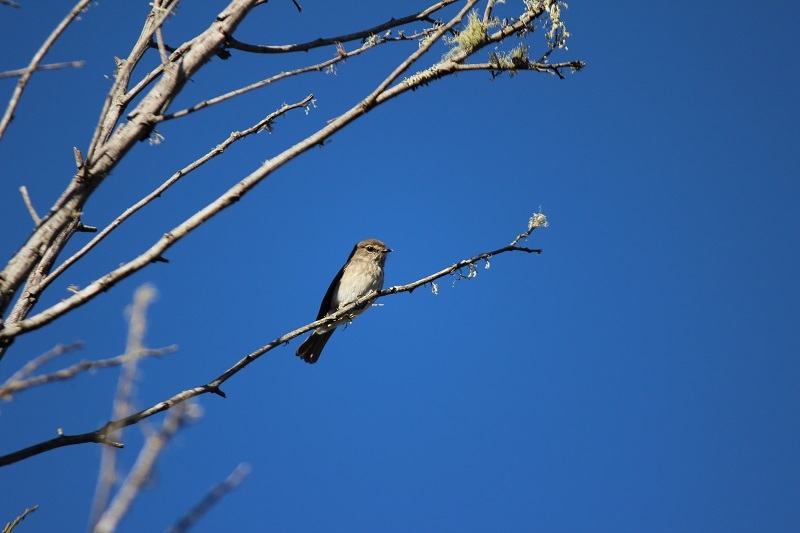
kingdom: Animalia
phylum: Chordata
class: Aves
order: Passeriformes
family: Muscicapidae
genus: Muscicapa
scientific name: Muscicapa adusta
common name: African dusky flycatcher
